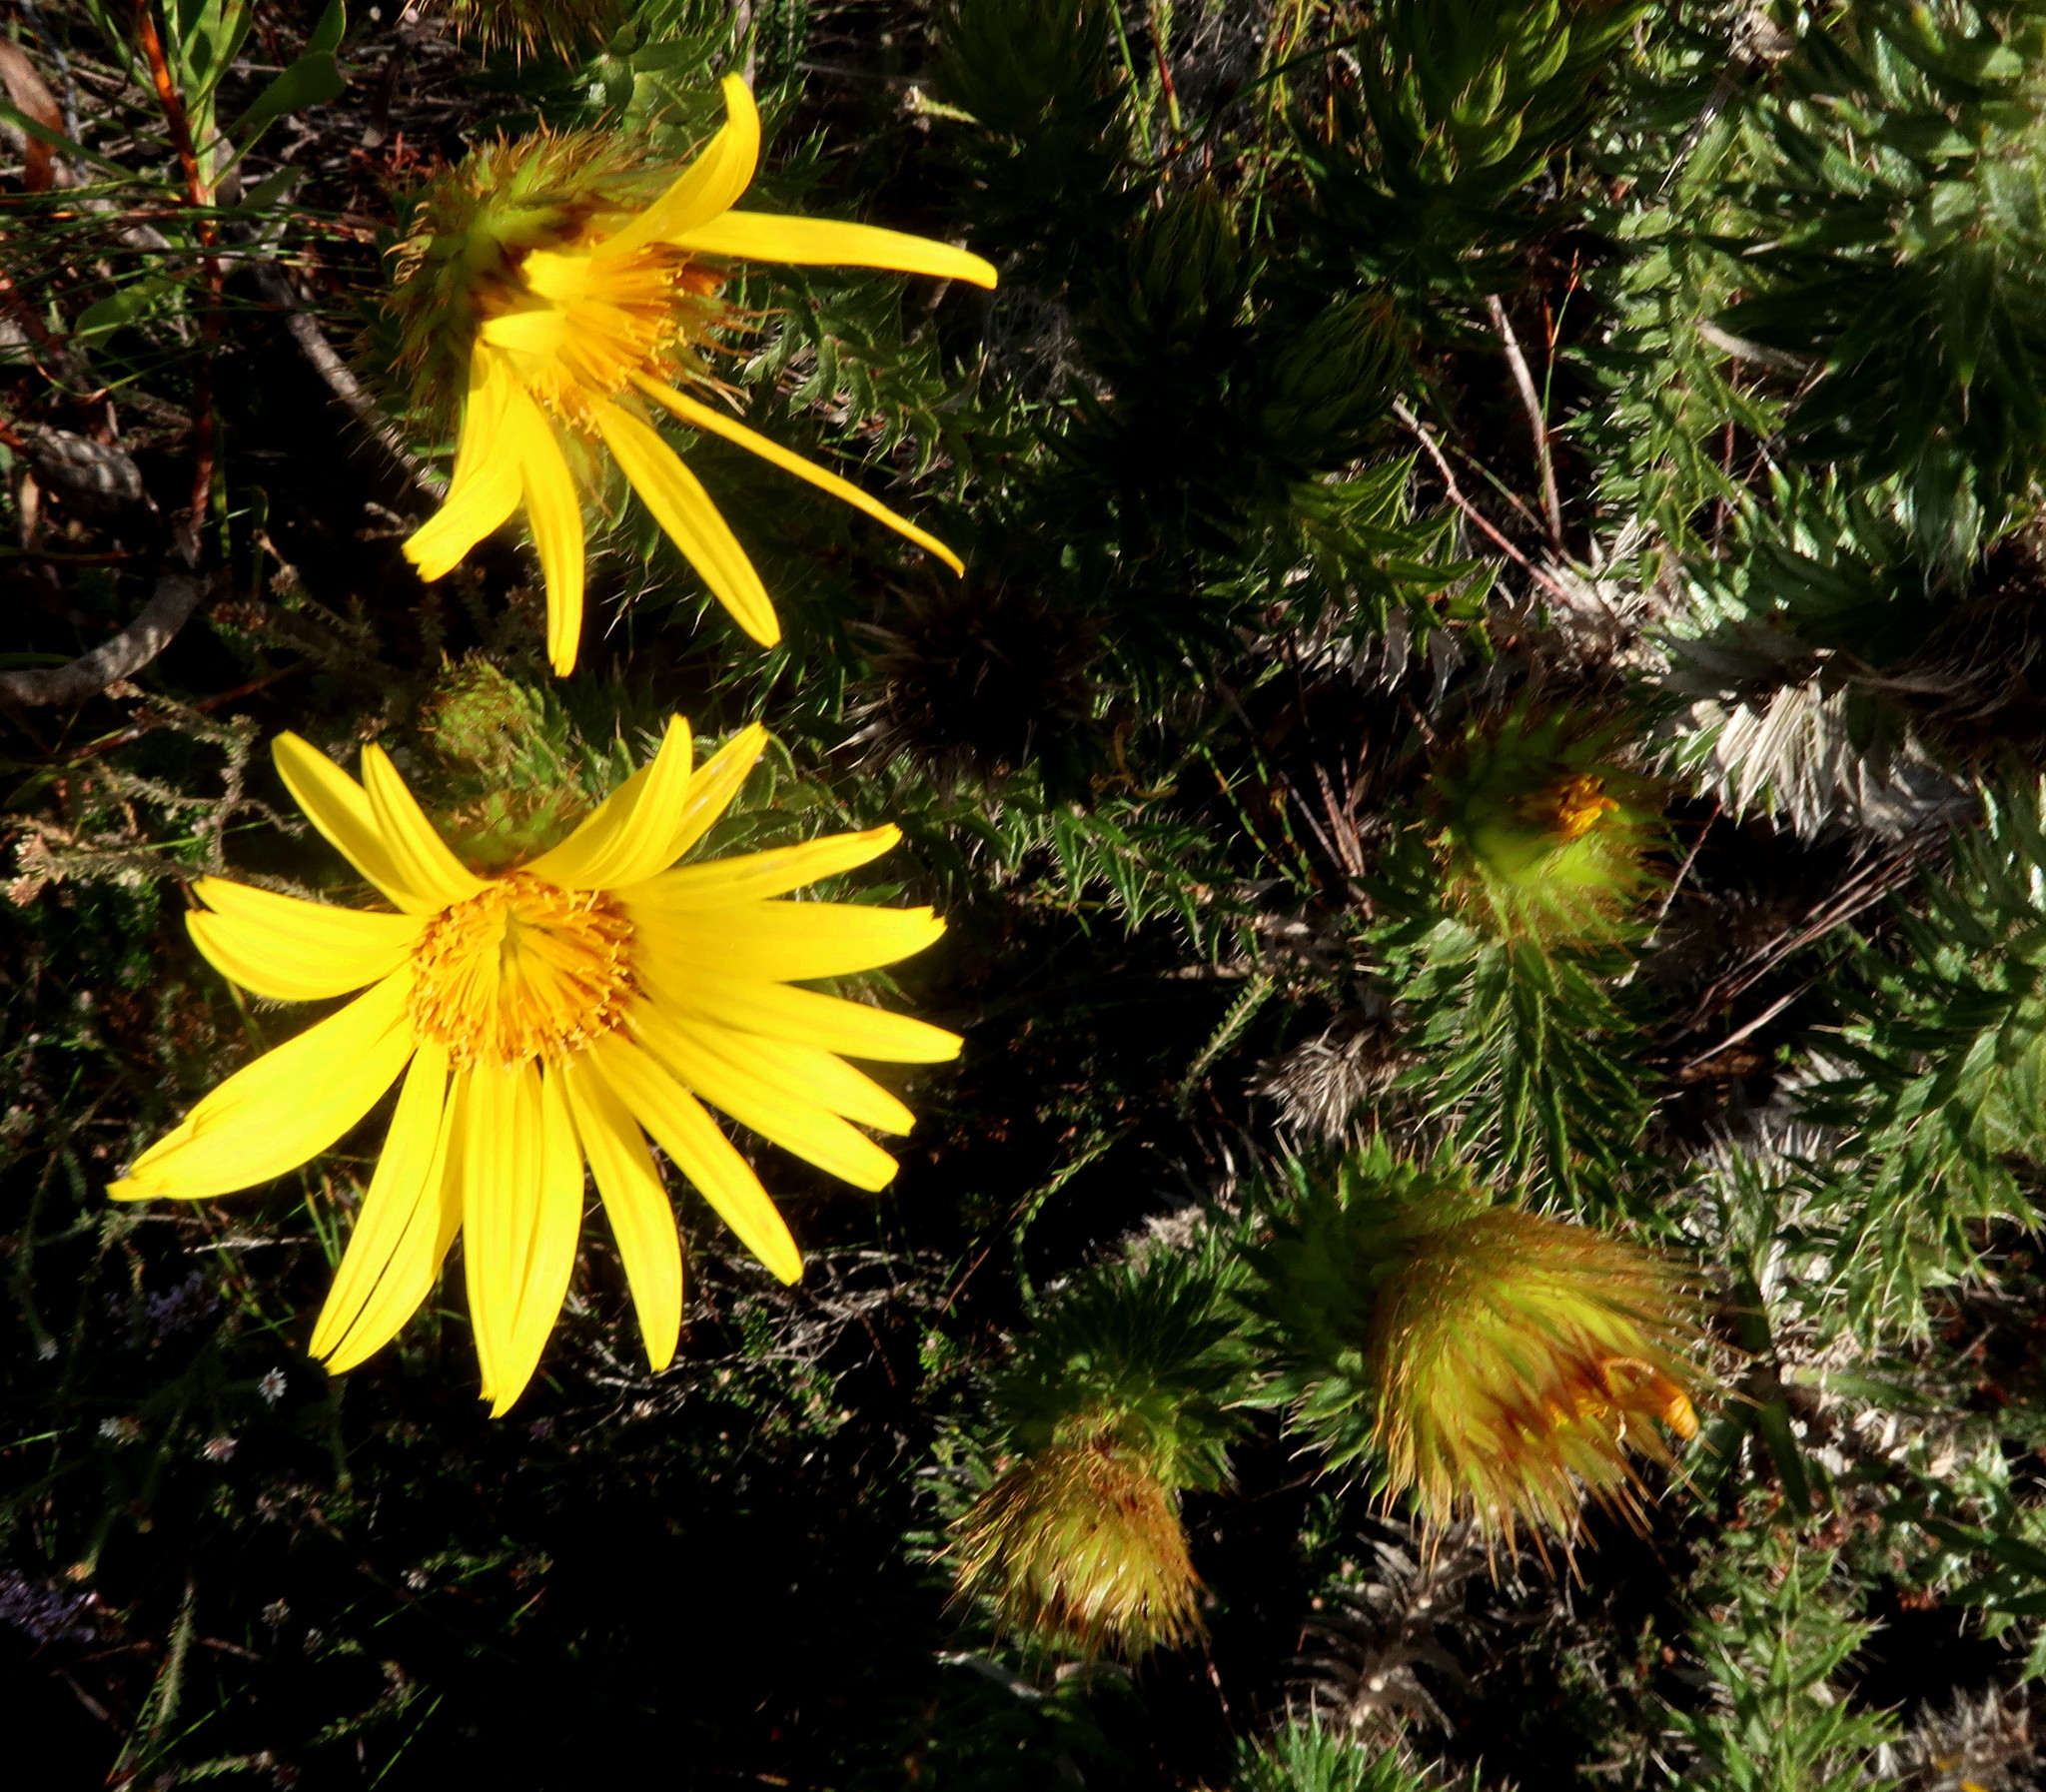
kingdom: Plantae
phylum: Tracheophyta
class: Magnoliopsida
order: Asterales
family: Asteraceae
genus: Cullumia
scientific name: Cullumia carlinoides
